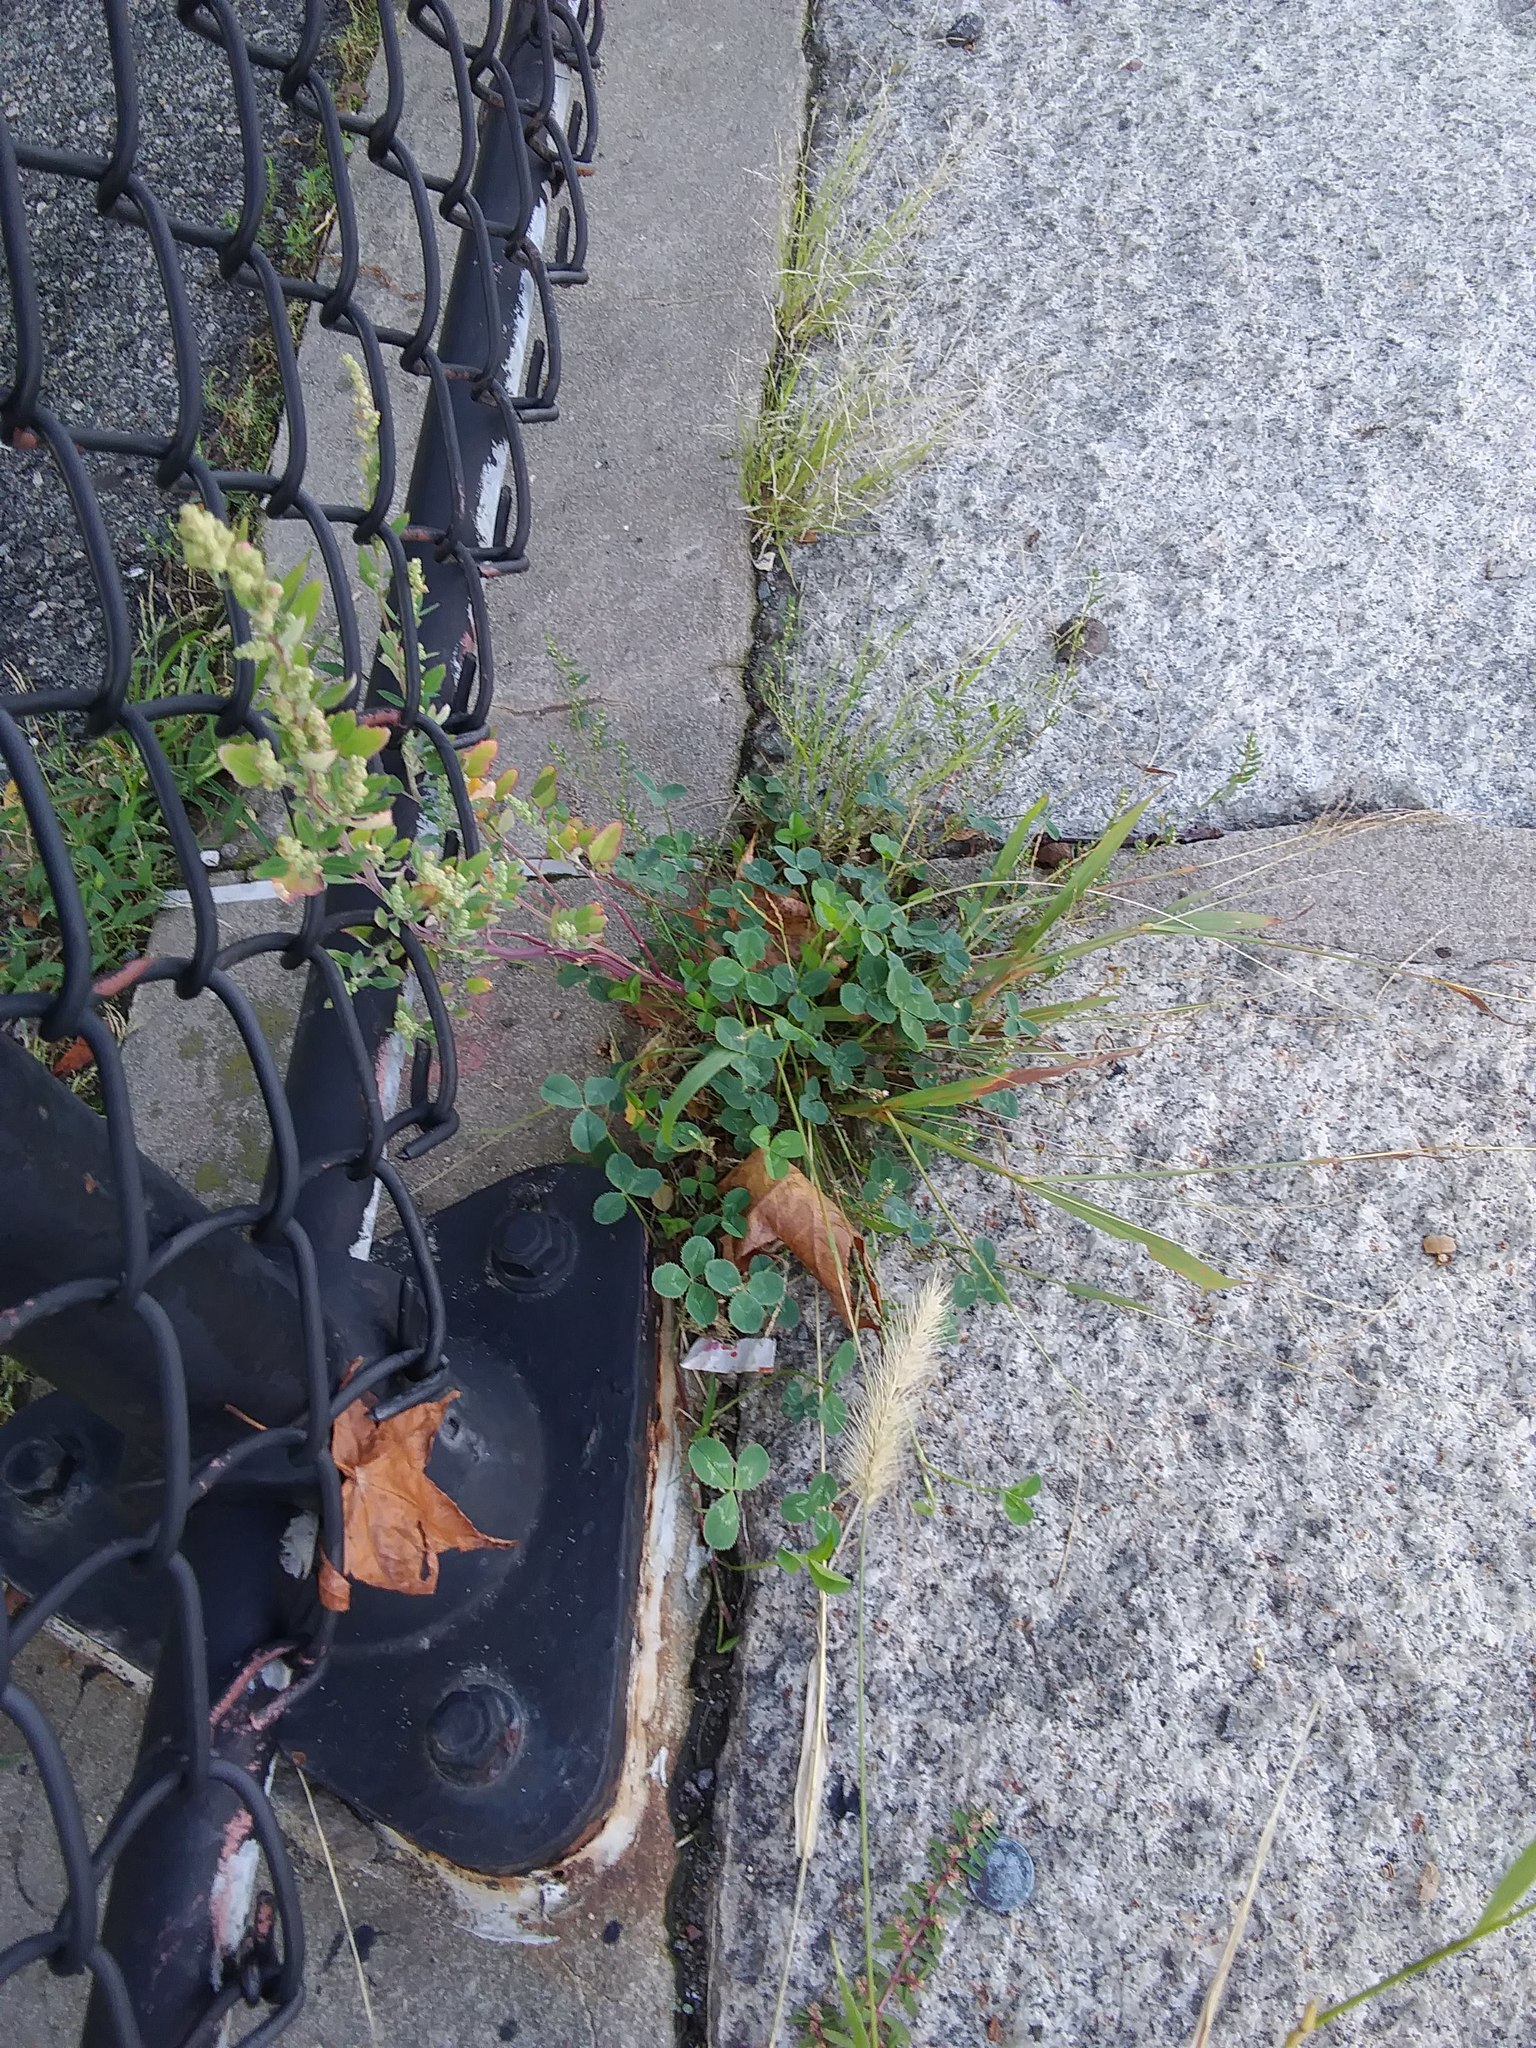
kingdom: Plantae
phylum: Tracheophyta
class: Magnoliopsida
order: Fabales
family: Fabaceae
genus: Trifolium
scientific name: Trifolium repens
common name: White clover
